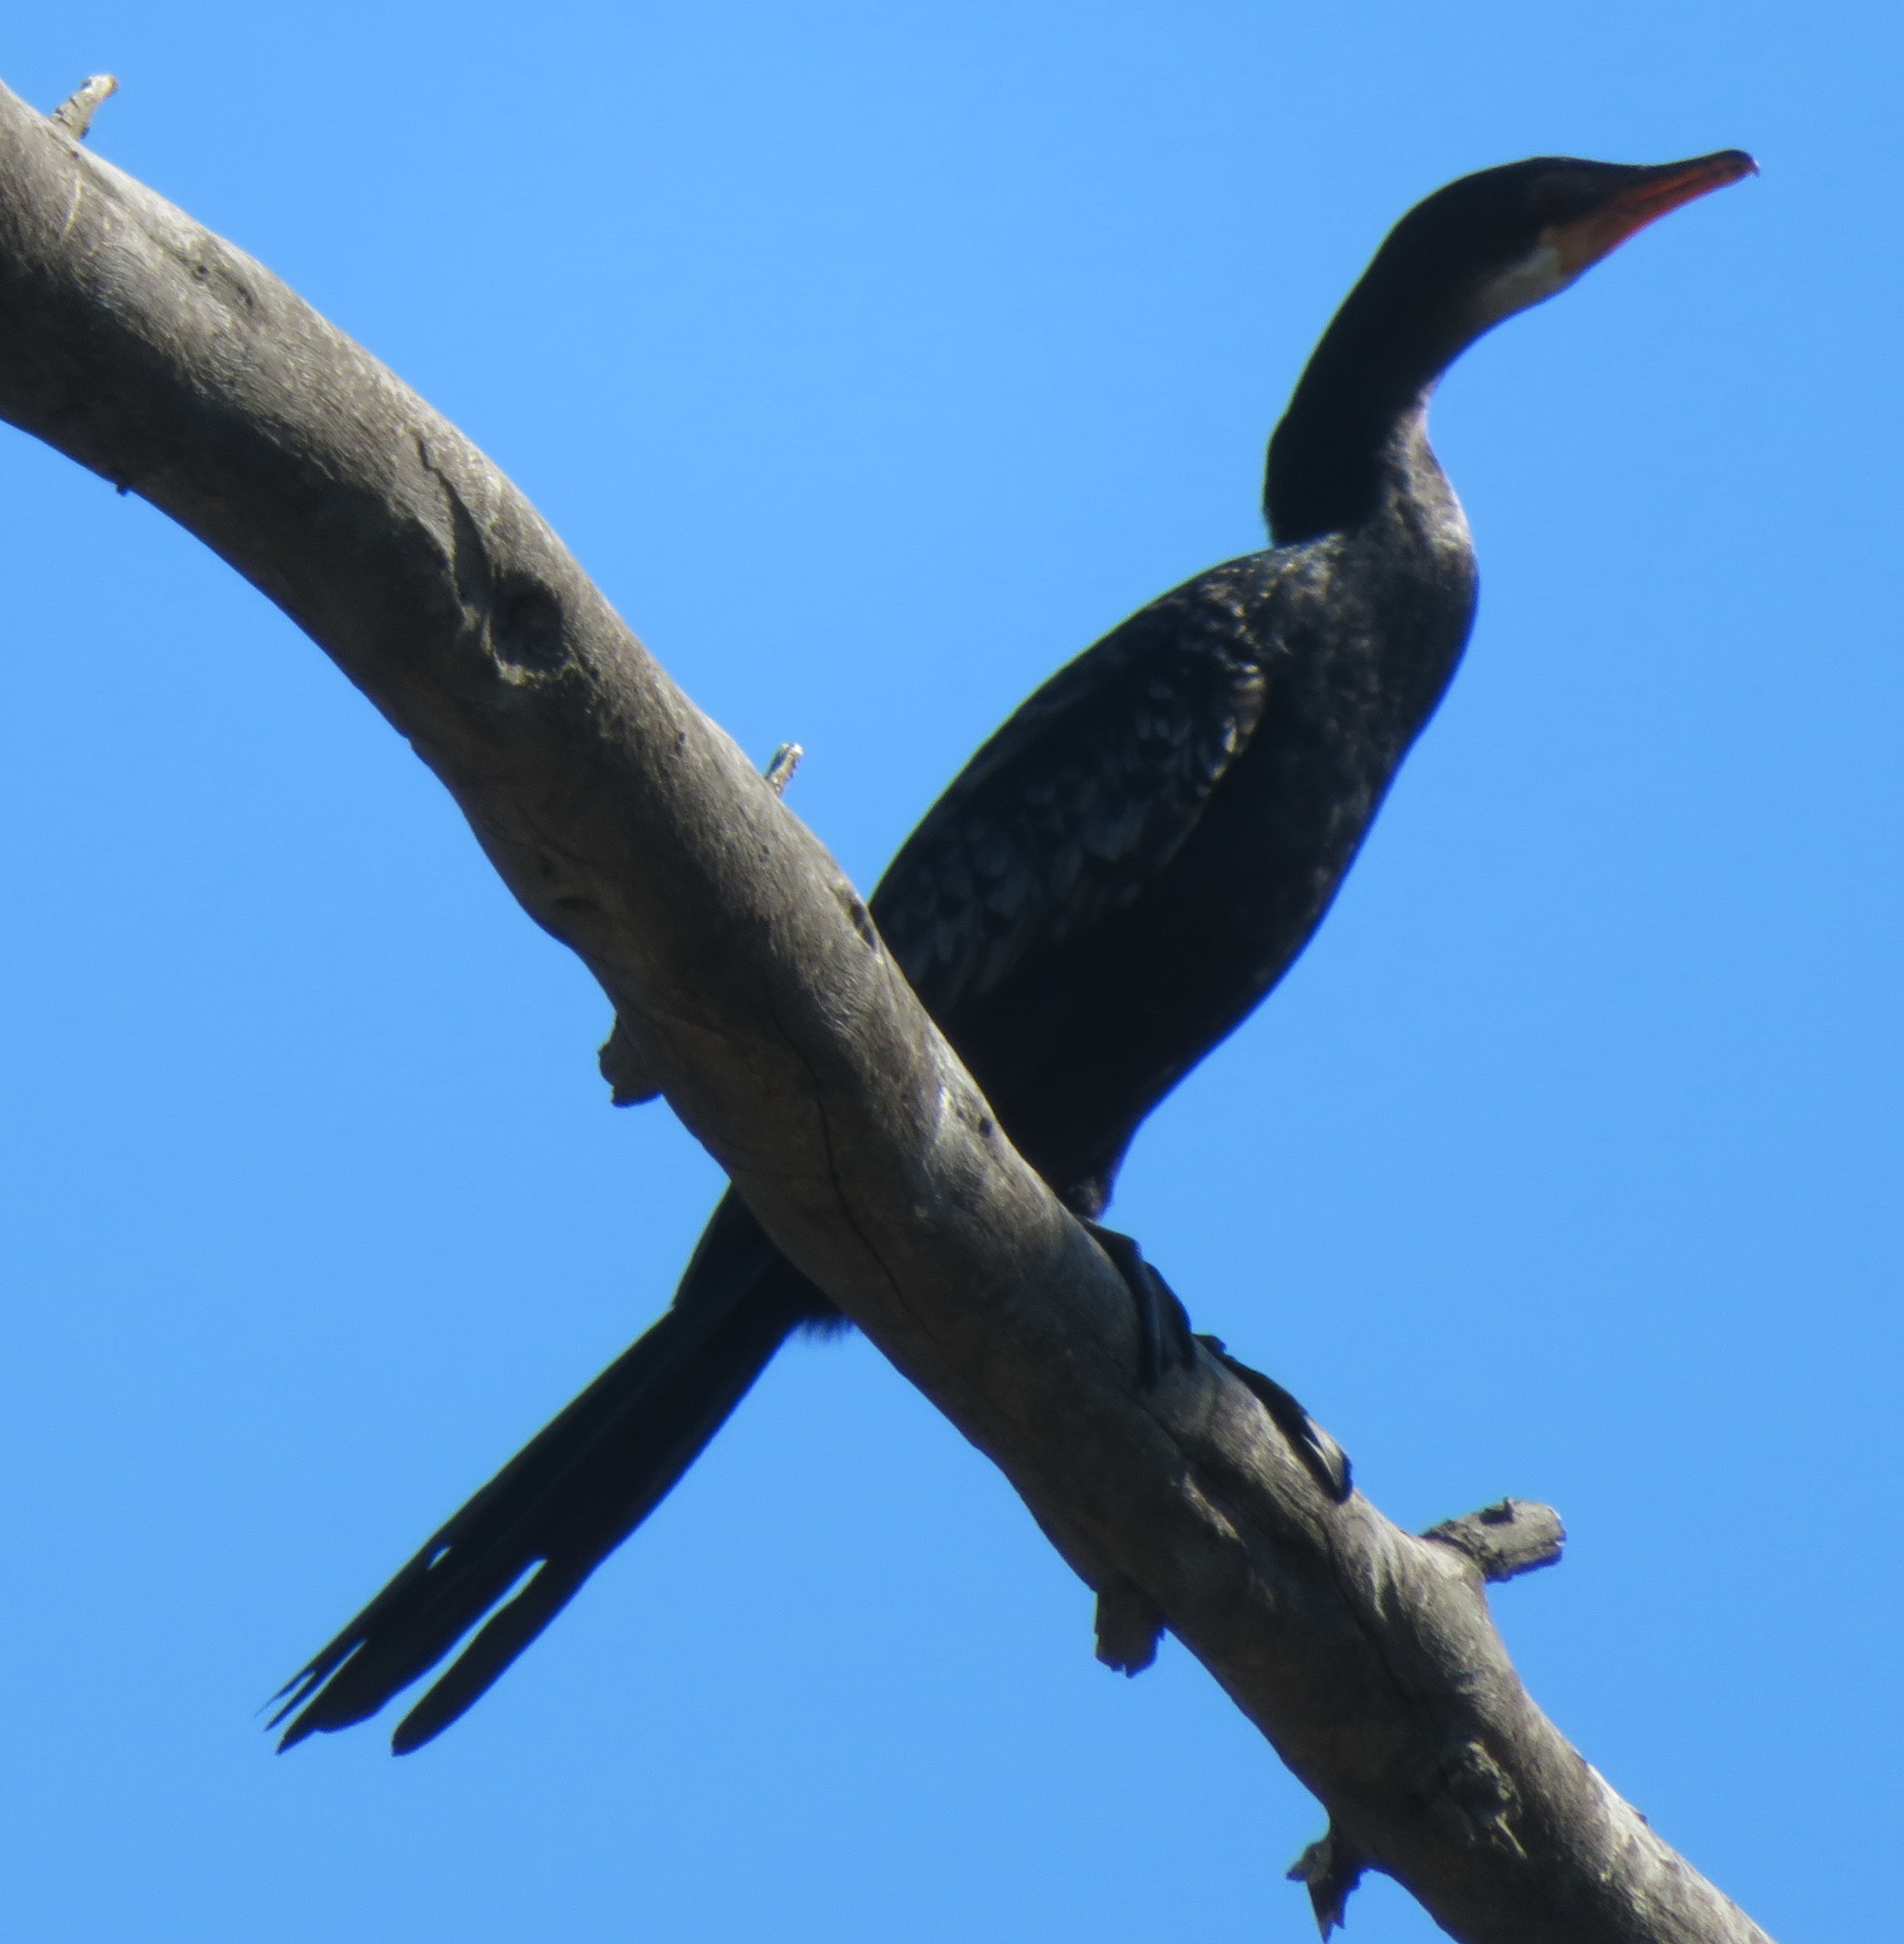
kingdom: Animalia
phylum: Chordata
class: Aves
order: Suliformes
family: Phalacrocoracidae
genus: Microcarbo
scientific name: Microcarbo africanus
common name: Long-tailed cormorant
